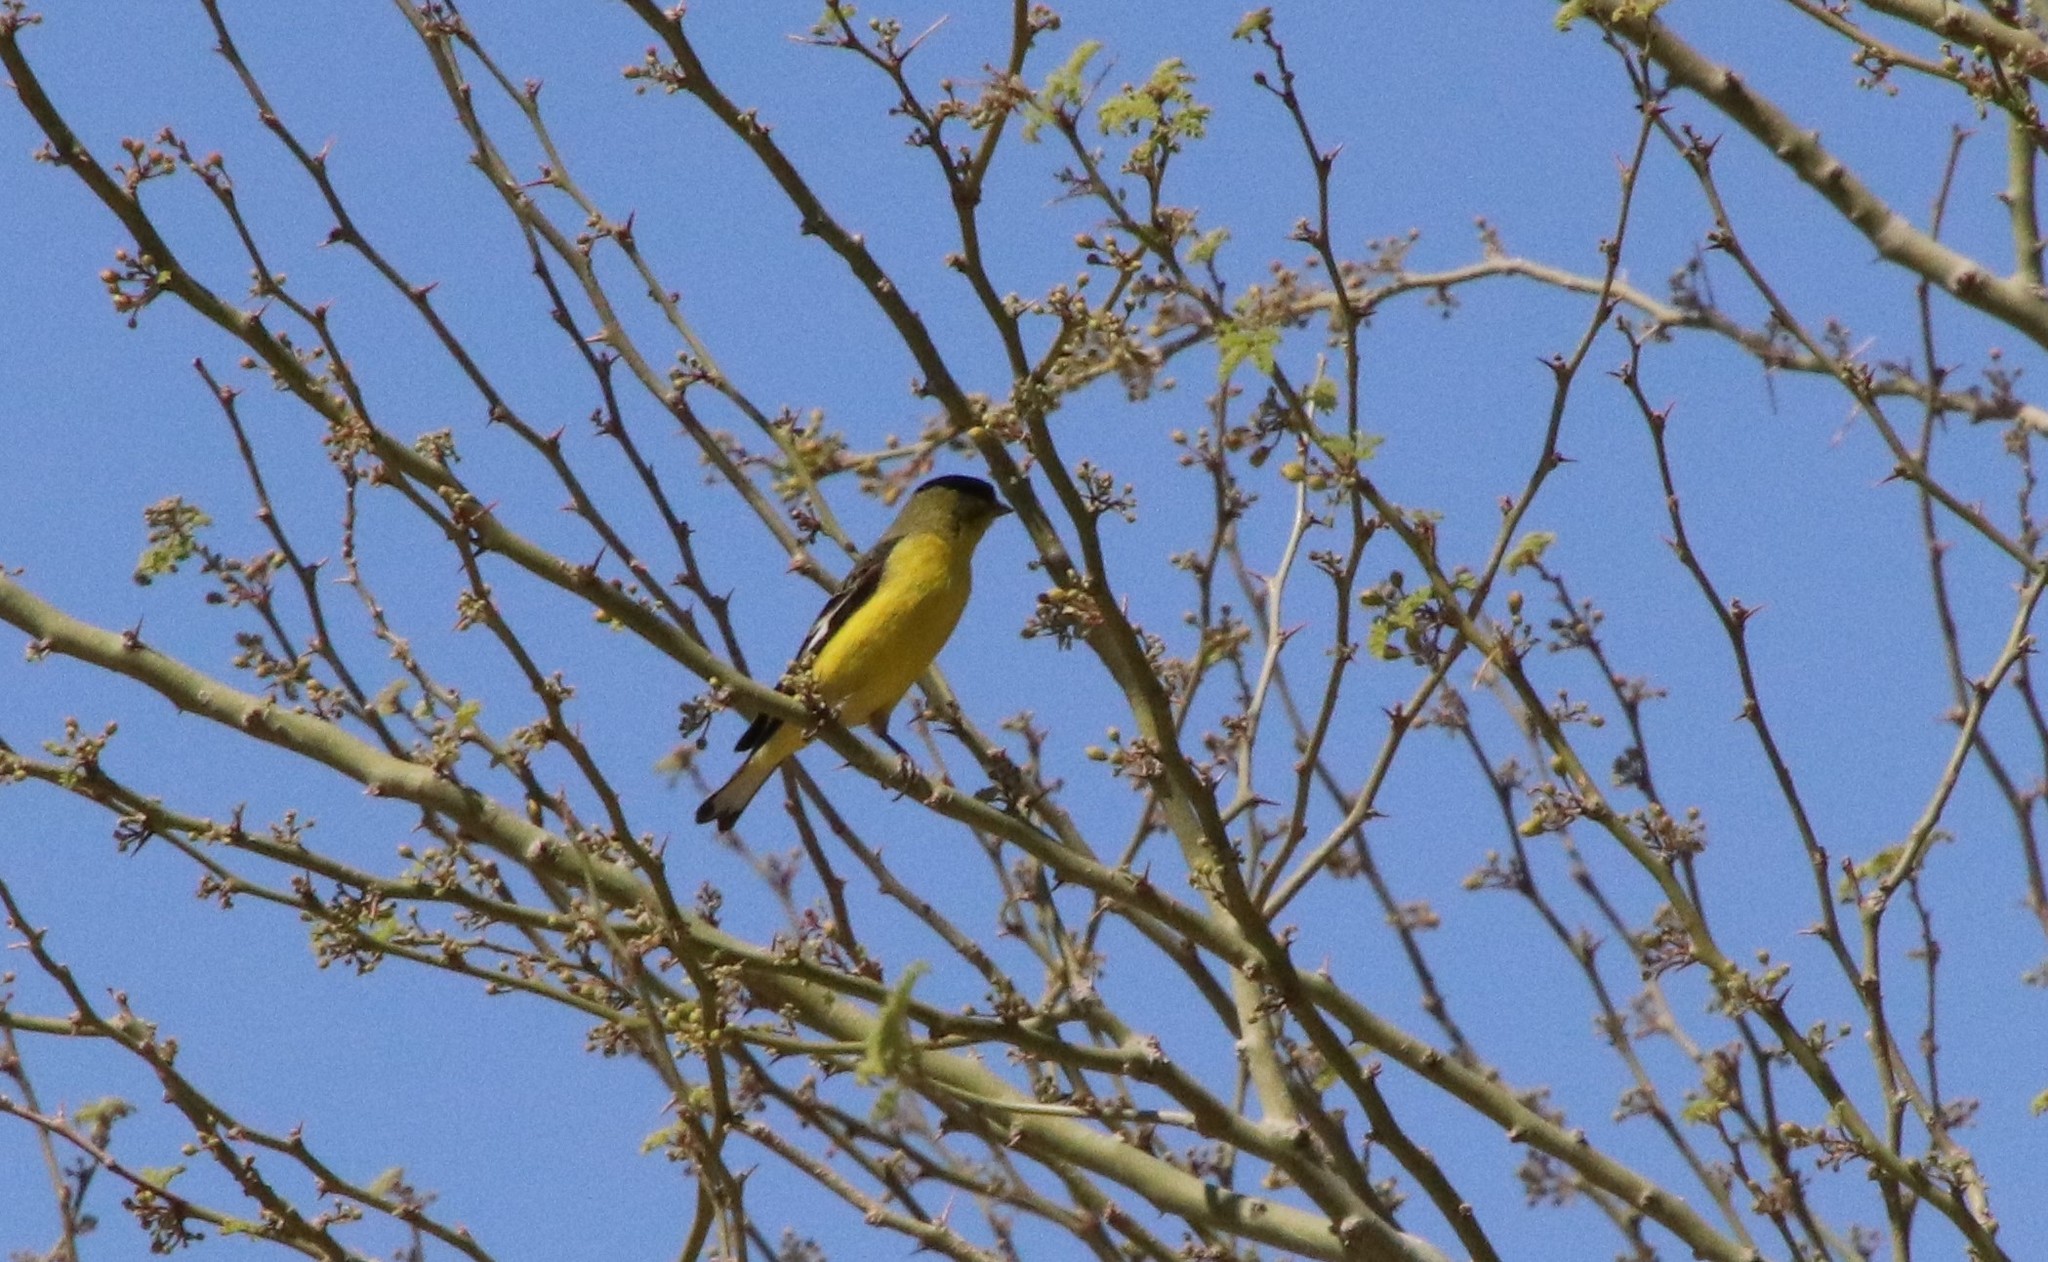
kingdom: Animalia
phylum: Chordata
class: Aves
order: Passeriformes
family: Fringillidae
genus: Spinus
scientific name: Spinus psaltria
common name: Lesser goldfinch
